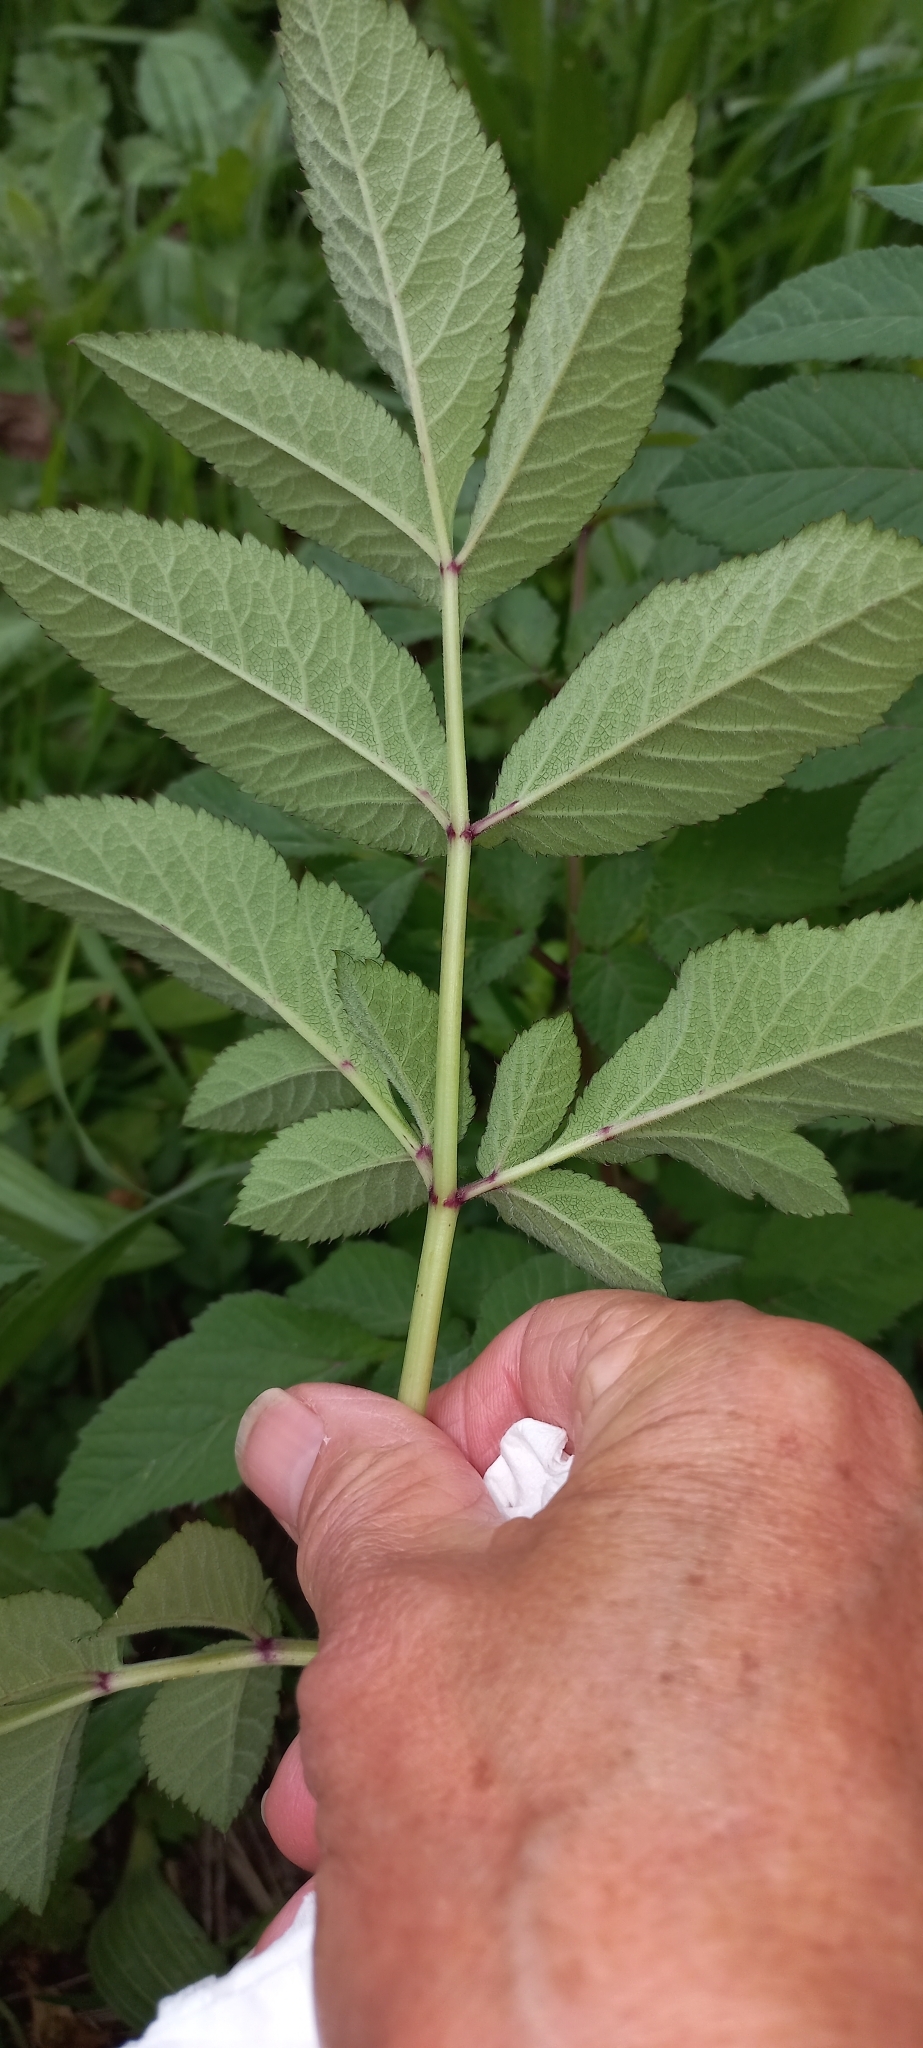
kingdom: Plantae
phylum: Tracheophyta
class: Magnoliopsida
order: Apiales
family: Apiaceae
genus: Angelica
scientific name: Angelica sylvestris
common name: Wild angelica
